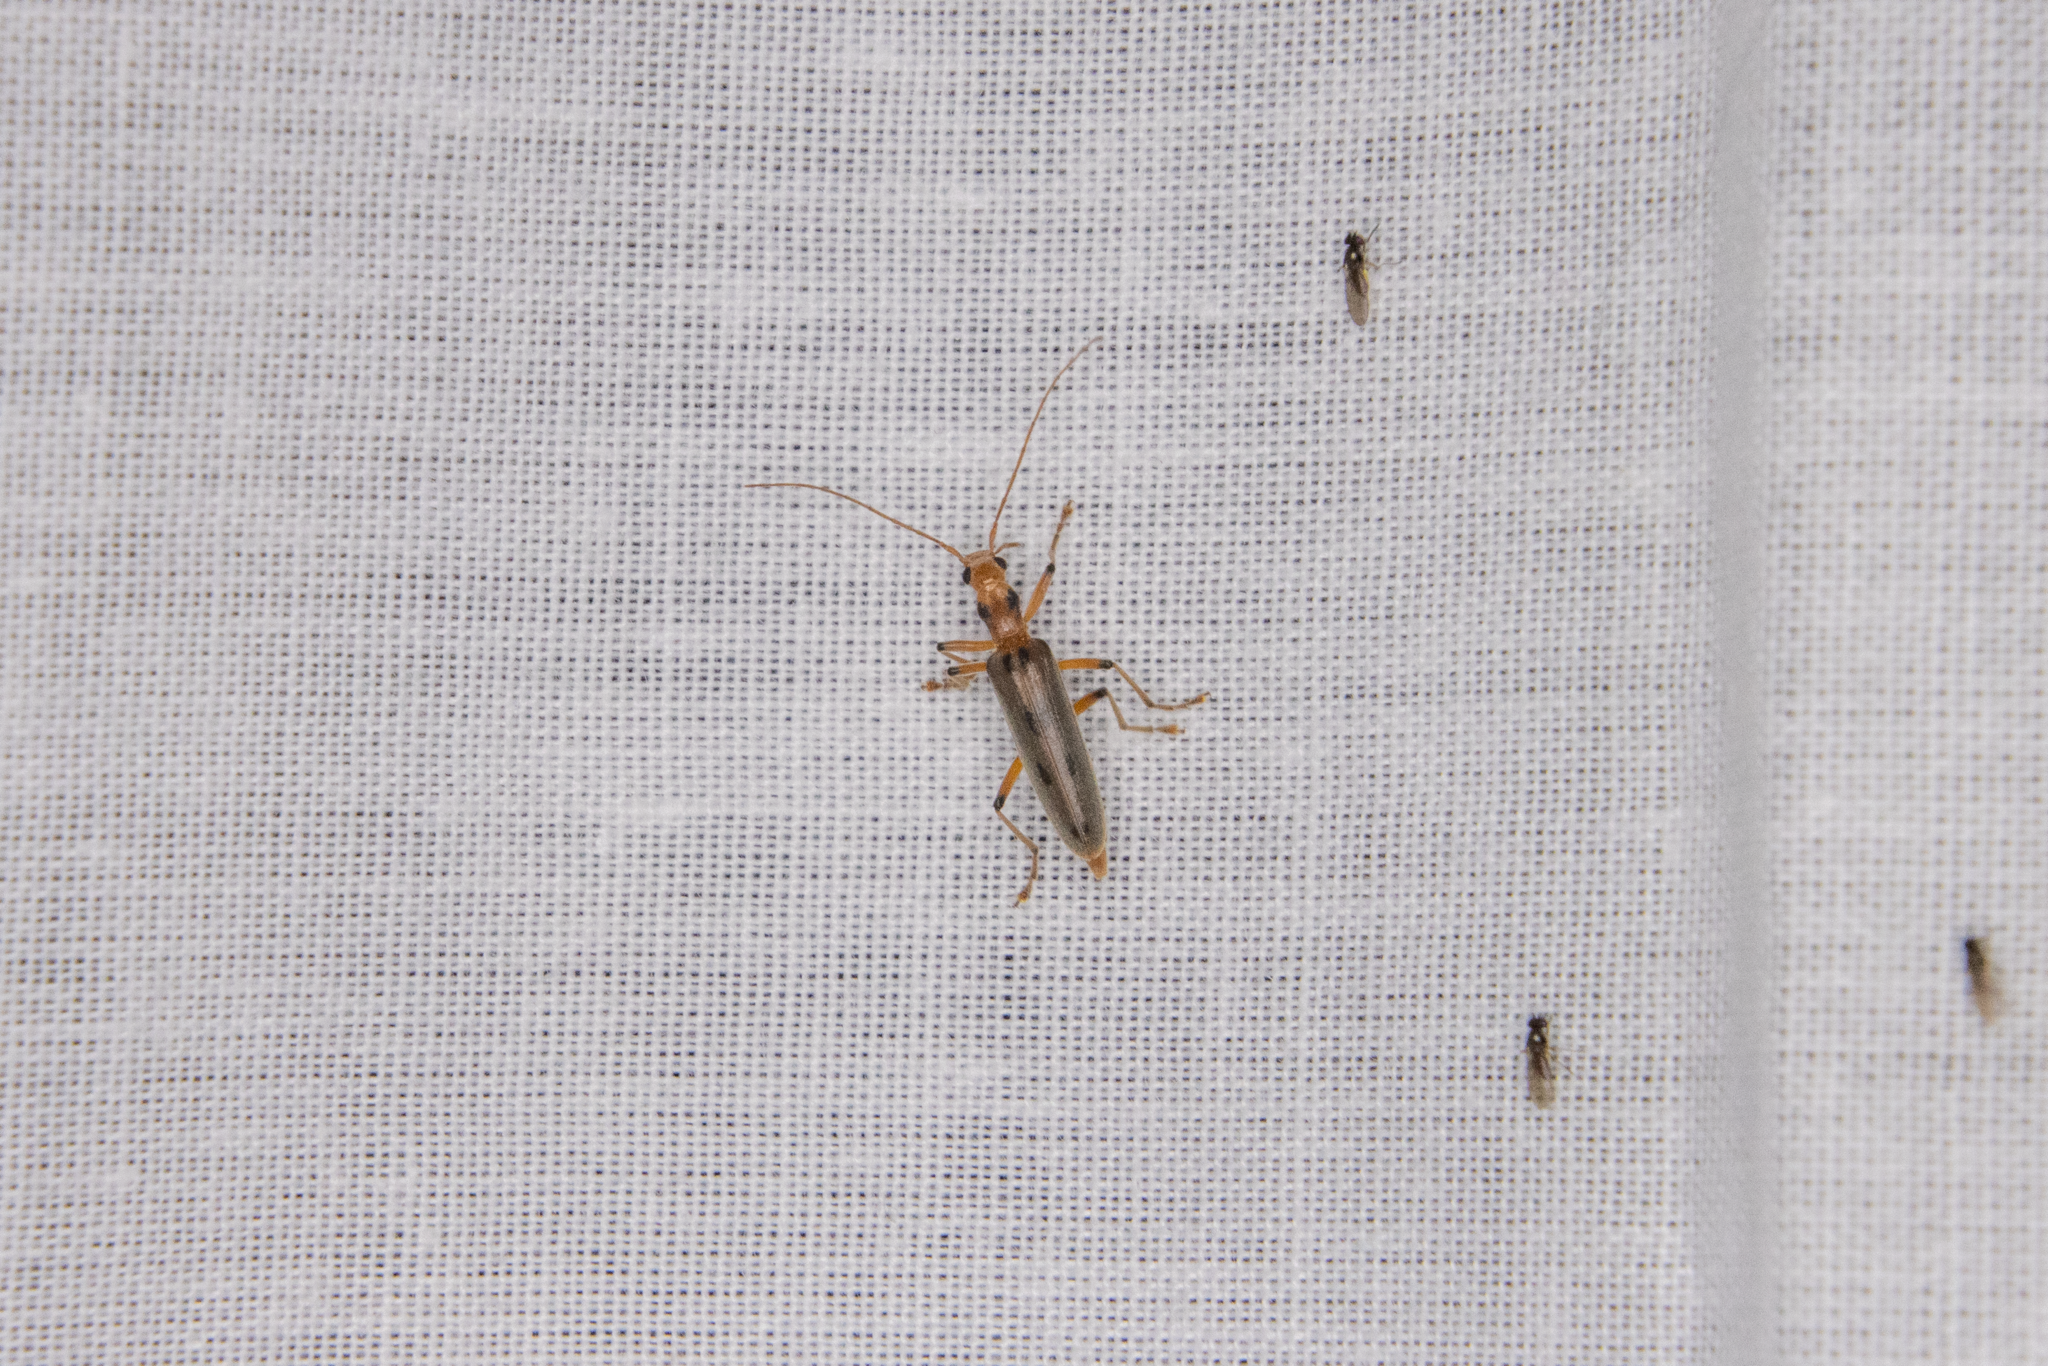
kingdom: Animalia
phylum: Arthropoda
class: Insecta
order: Coleoptera
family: Oedemeridae
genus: Parisopalpus
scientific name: Parisopalpus
